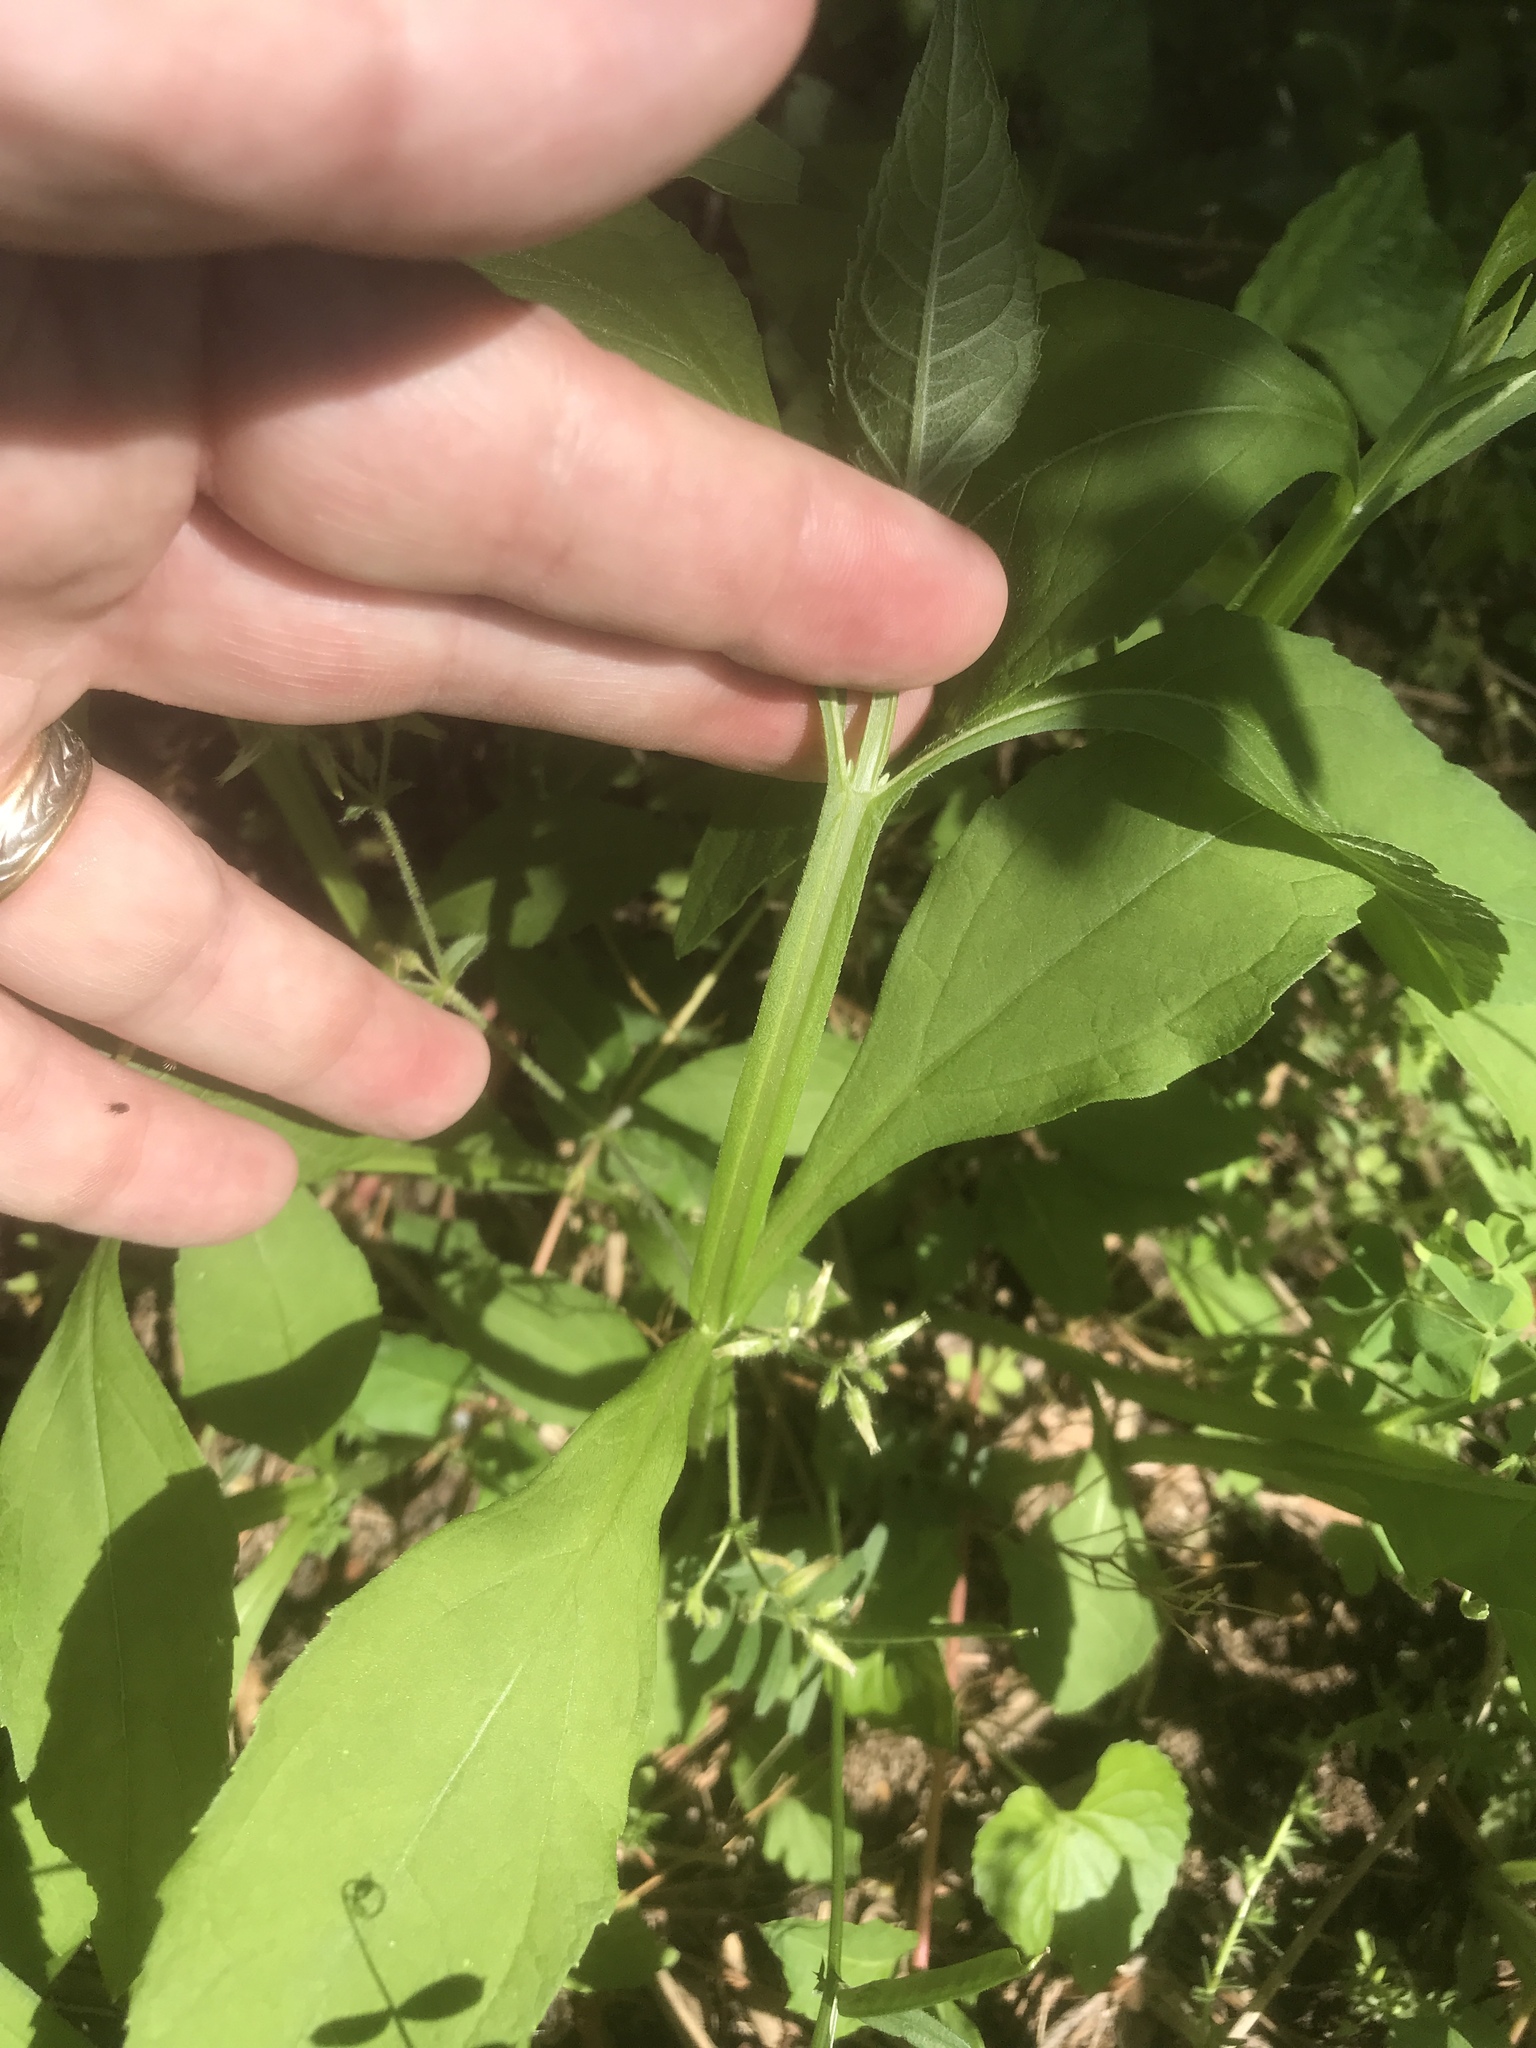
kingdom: Plantae
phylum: Tracheophyta
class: Magnoliopsida
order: Asterales
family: Asteraceae
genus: Verbesina
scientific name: Verbesina occidentalis
